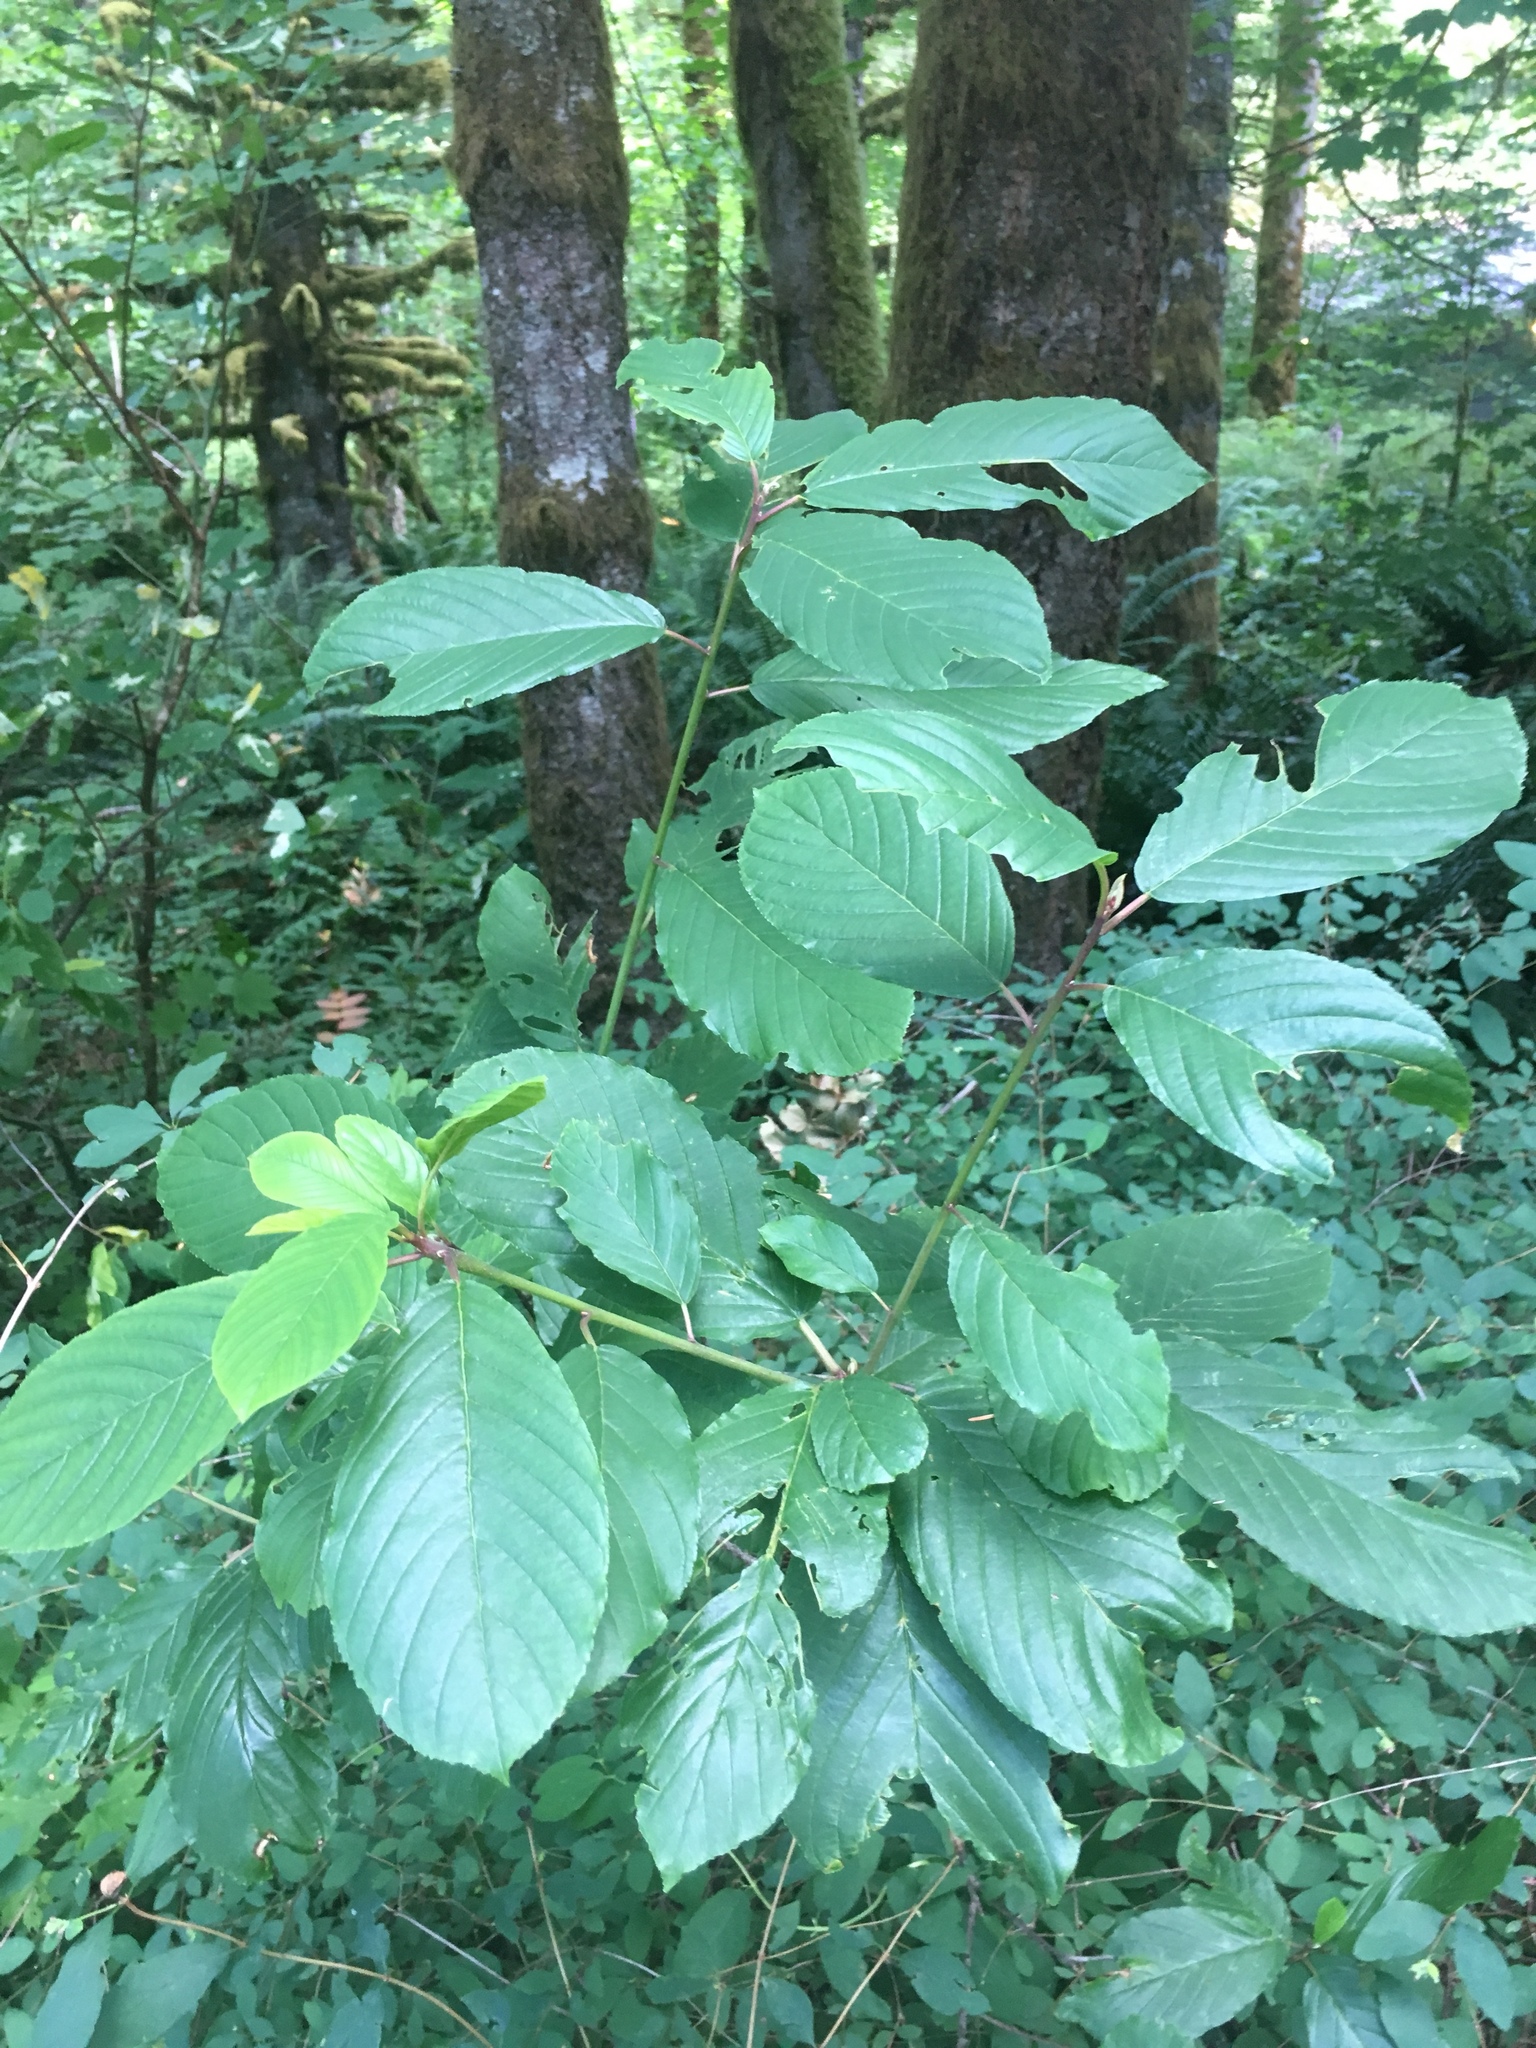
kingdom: Plantae
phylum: Tracheophyta
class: Magnoliopsida
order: Rosales
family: Rhamnaceae
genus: Frangula
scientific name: Frangula purshiana
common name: Cascara buckthorn
